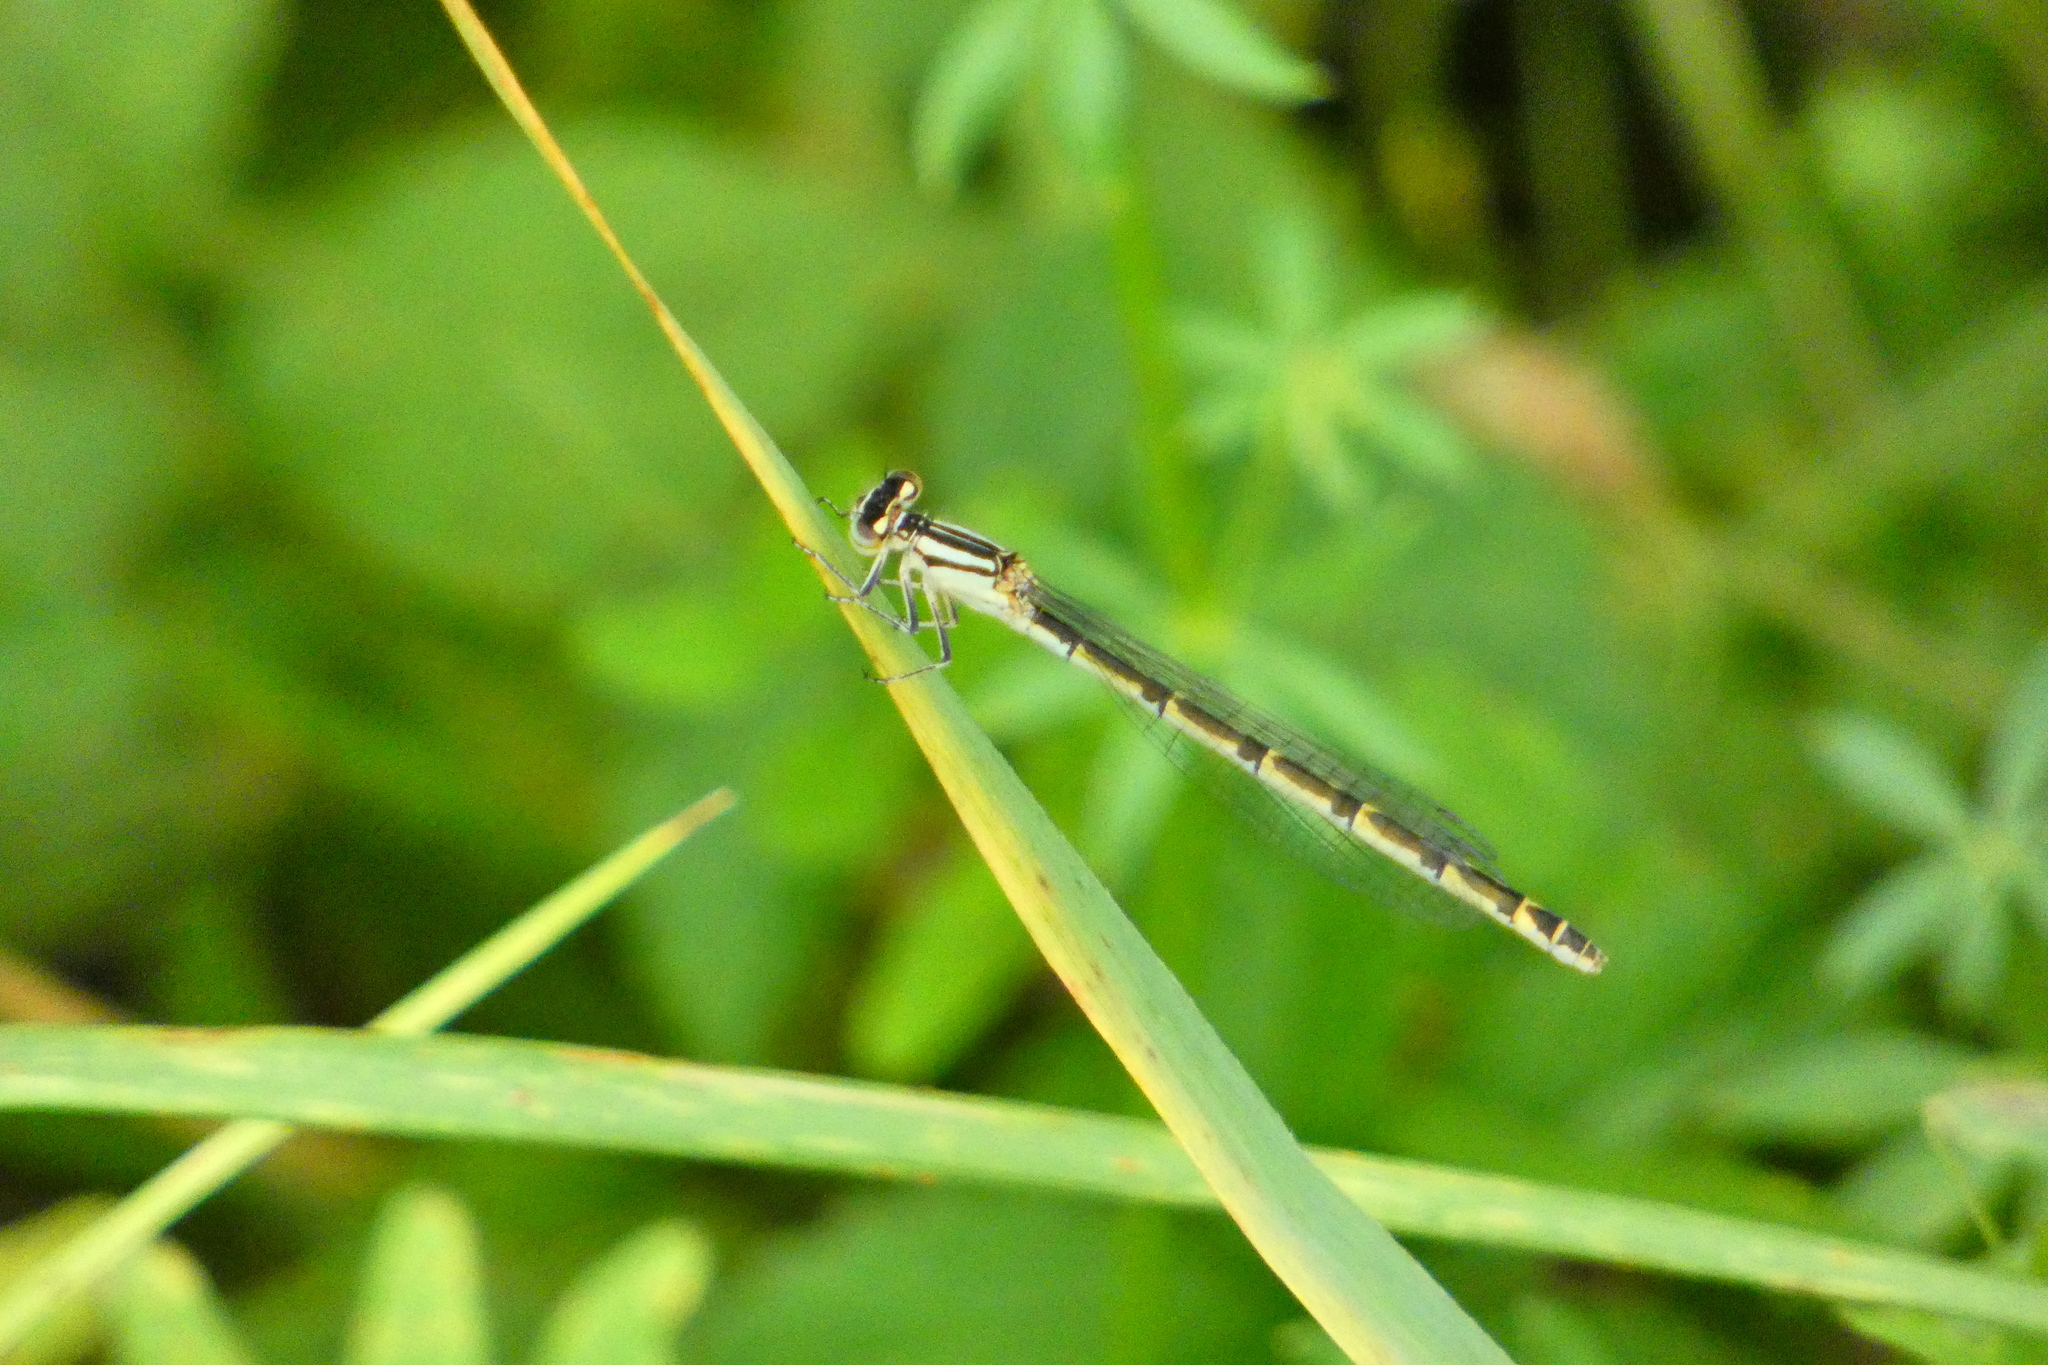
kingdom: Animalia
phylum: Arthropoda
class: Insecta
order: Odonata
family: Coenagrionidae
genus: Enallagma
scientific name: Enallagma cyathigerum
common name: Common blue damselfly
